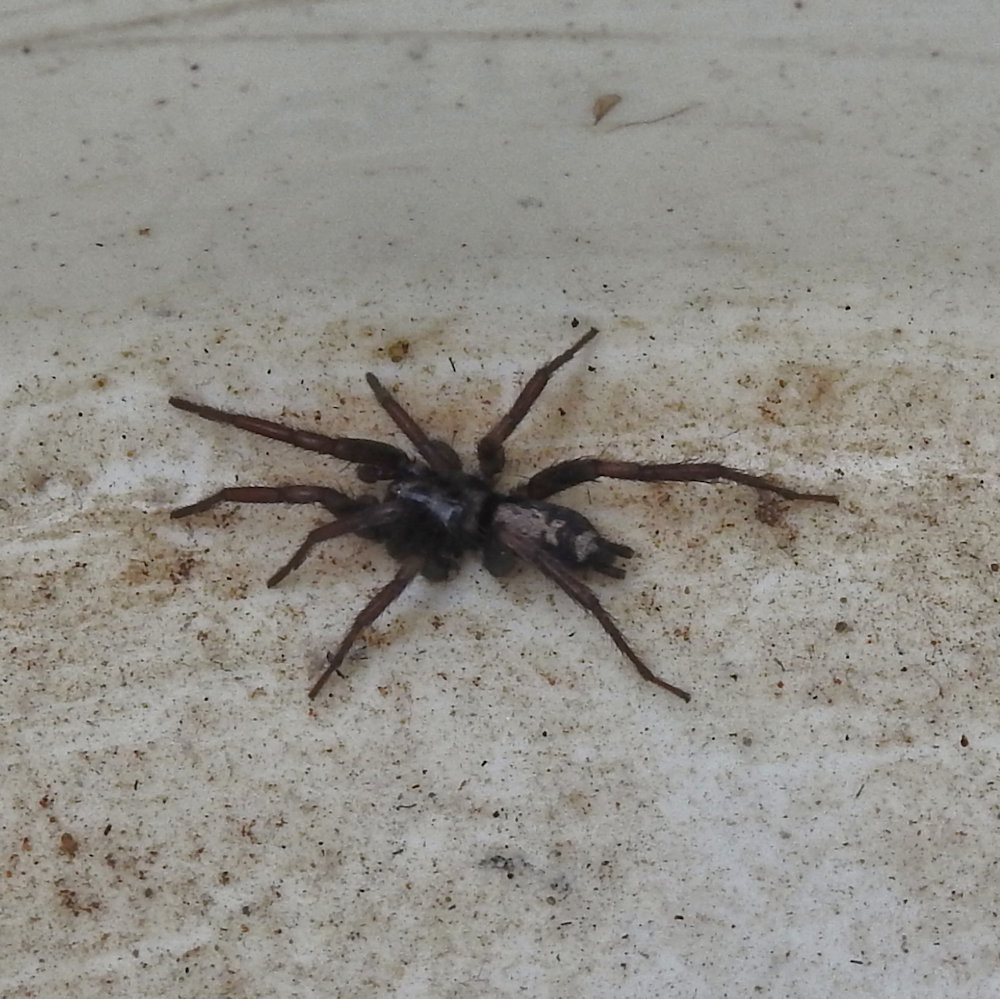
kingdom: Animalia
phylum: Arthropoda
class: Arachnida
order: Araneae
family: Gnaphosidae
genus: Herpyllus
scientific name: Herpyllus ecclesiasticus
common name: Eastern parson spider
